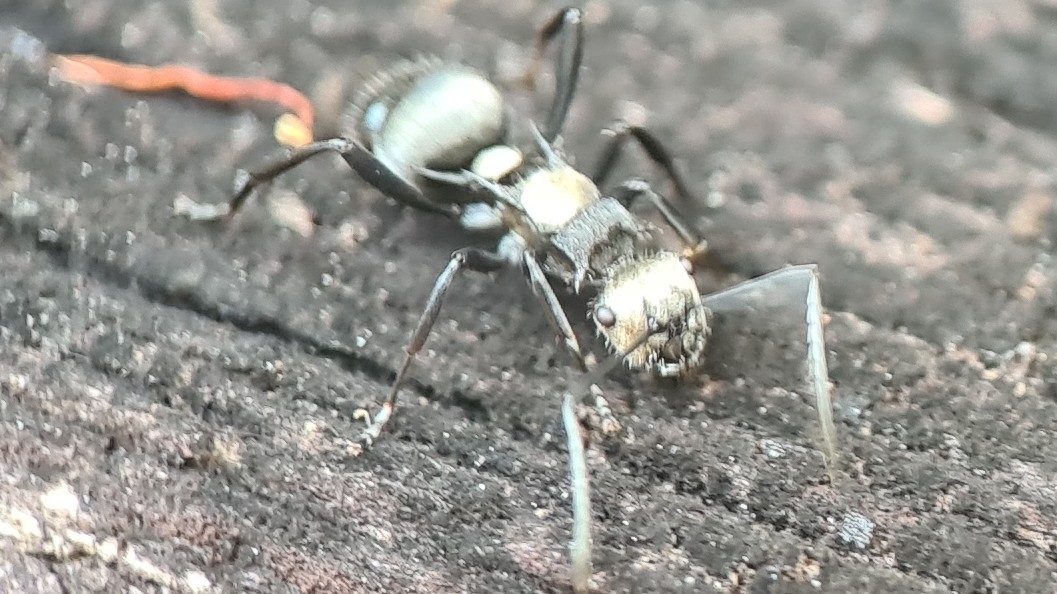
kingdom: Animalia
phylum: Arthropoda
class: Insecta
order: Hymenoptera
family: Formicidae
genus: Polyrhachis
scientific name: Polyrhachis daemeli
